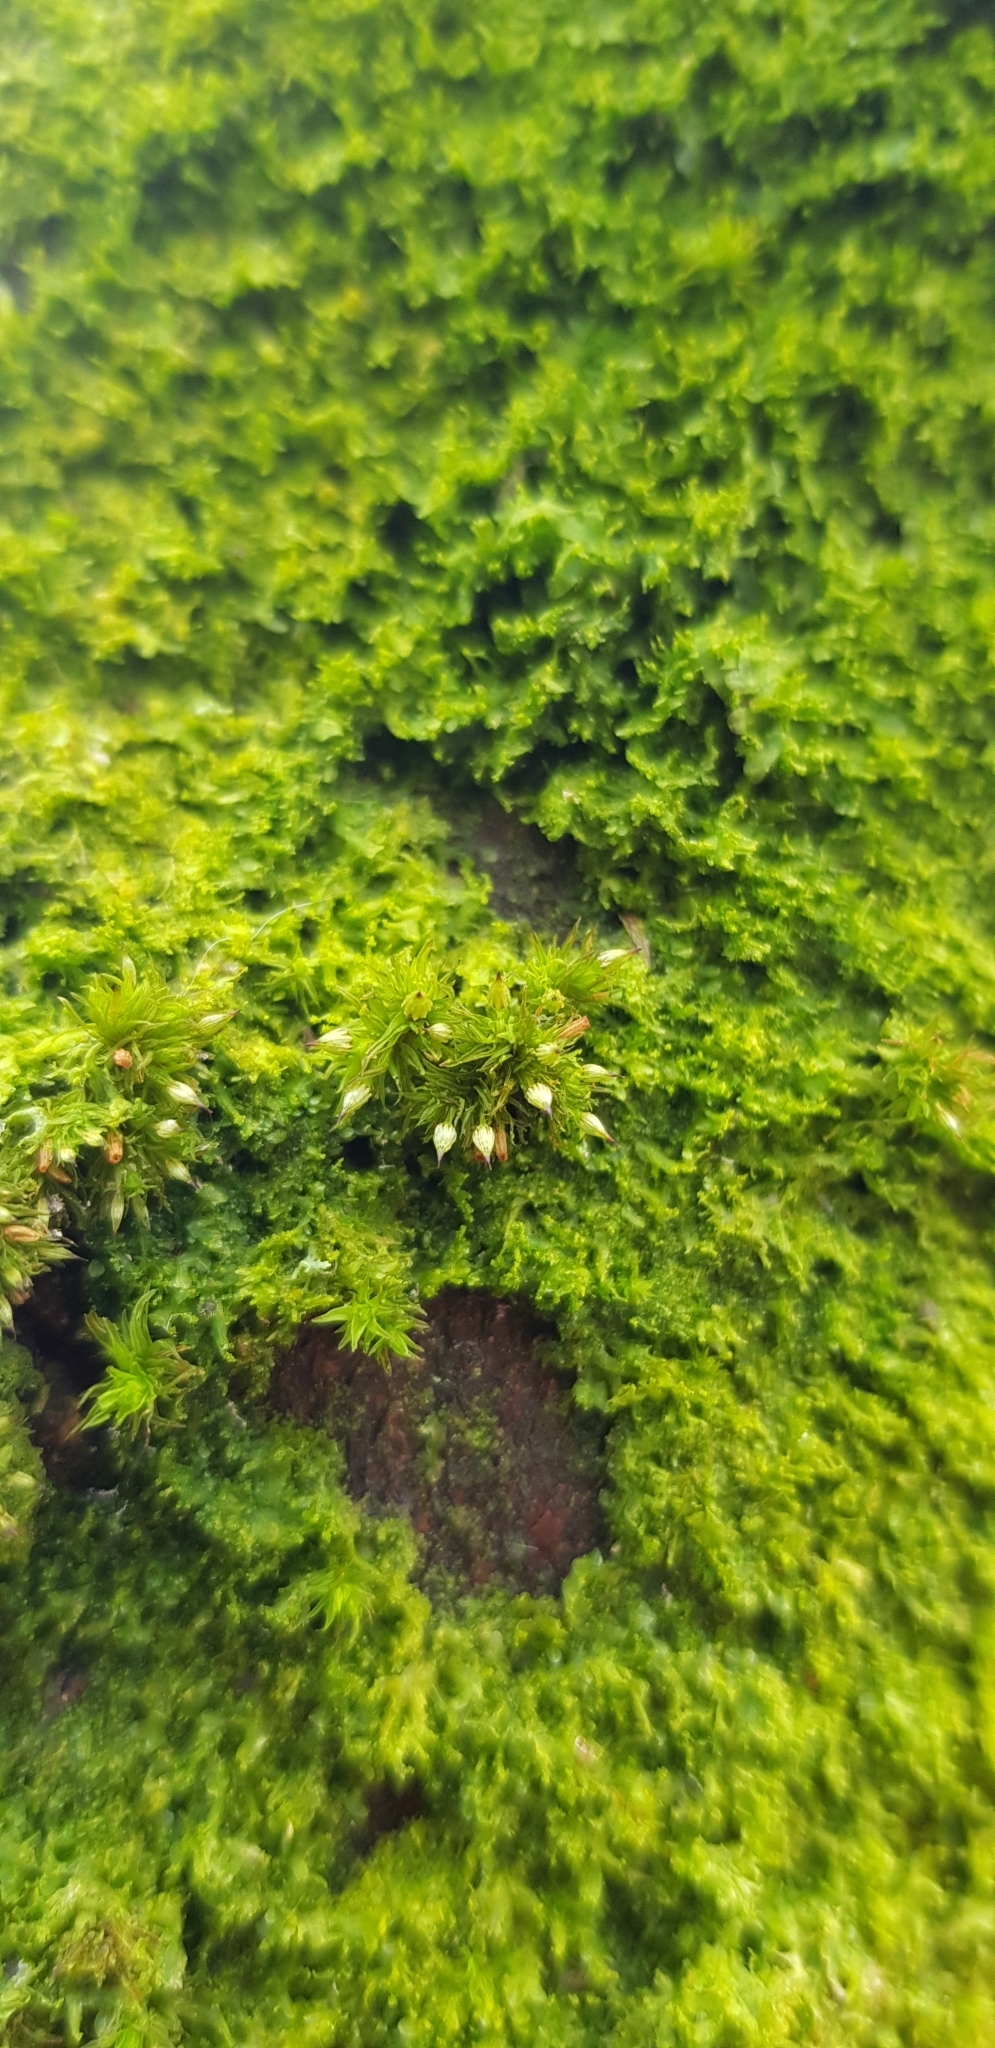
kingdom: Plantae
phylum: Bryophyta
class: Bryopsida
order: Orthotrichales
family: Orthotrichaceae
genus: Orthotrichum
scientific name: Orthotrichum pulchellum
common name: Elegant bristle-moss
